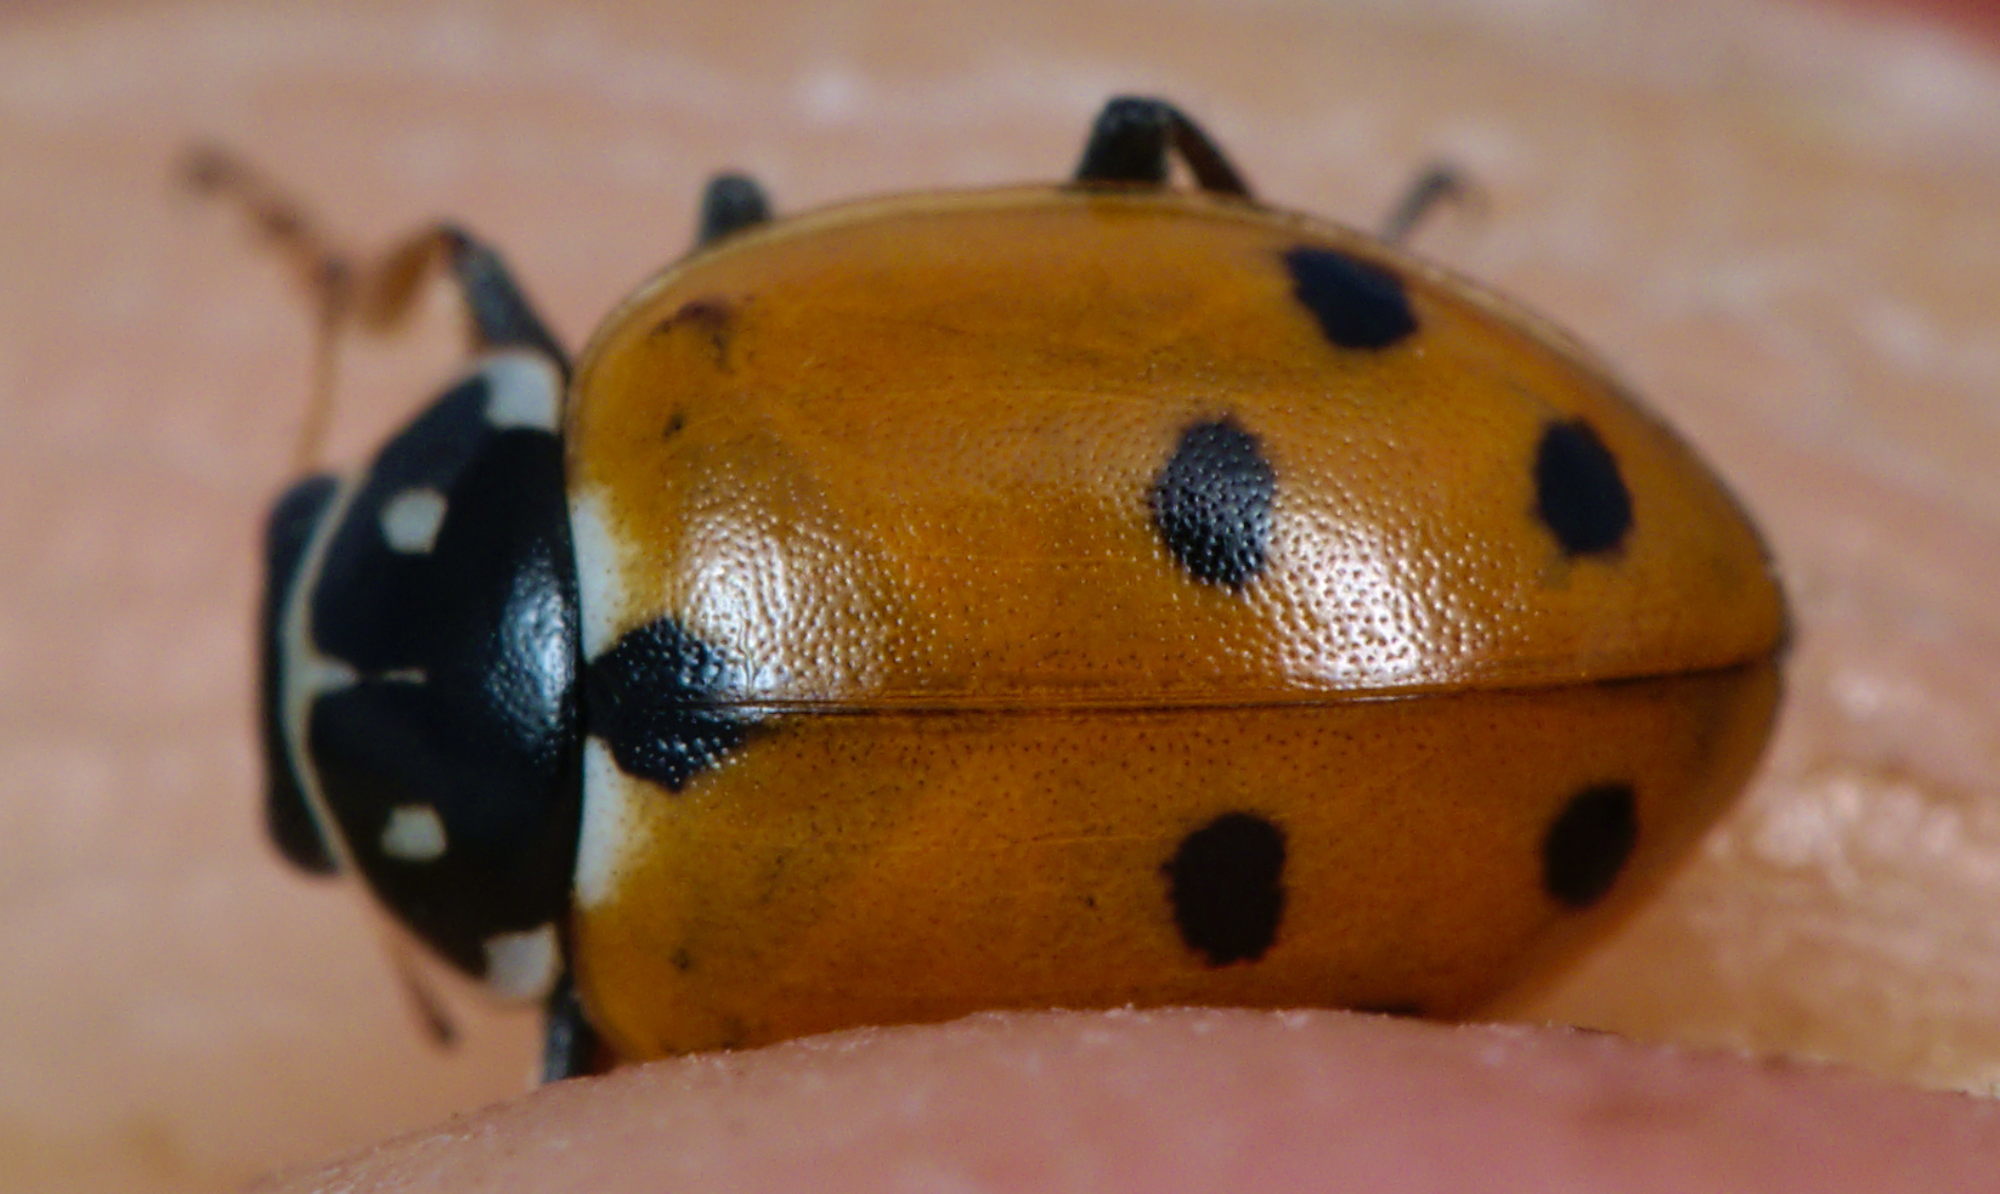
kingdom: Animalia
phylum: Arthropoda
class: Insecta
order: Coleoptera
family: Coccinellidae
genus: Hippodamia
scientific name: Hippodamia variegata
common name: Ladybird beetle
